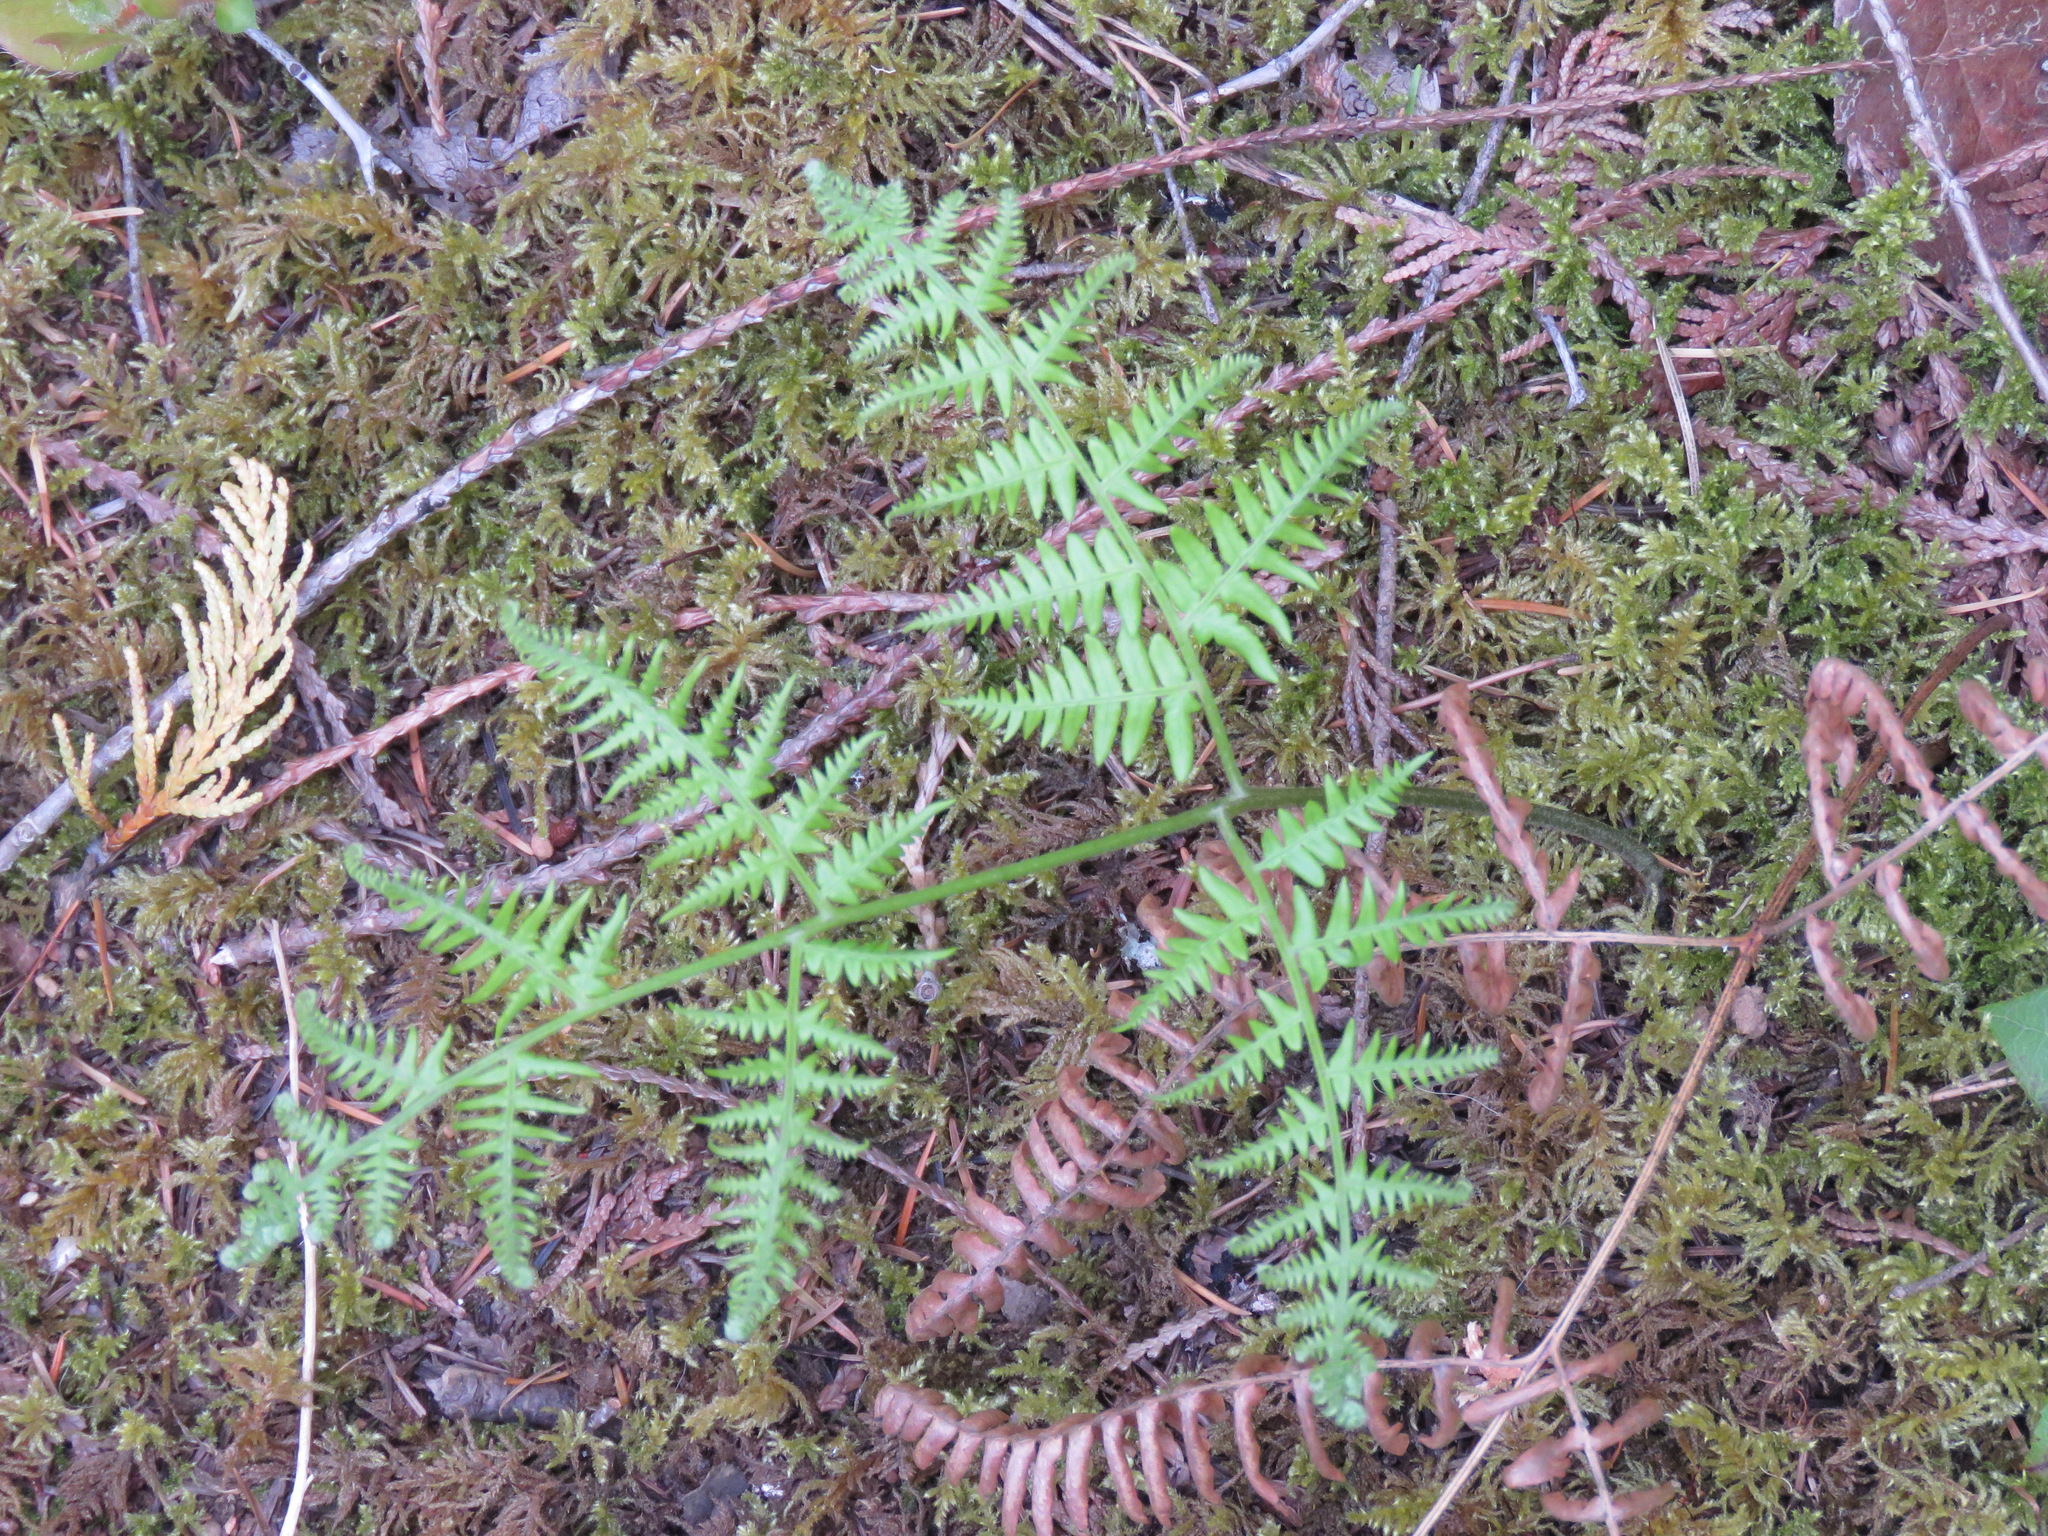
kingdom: Plantae
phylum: Tracheophyta
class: Polypodiopsida
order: Polypodiales
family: Dennstaedtiaceae
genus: Pteridium
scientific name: Pteridium aquilinum
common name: Bracken
